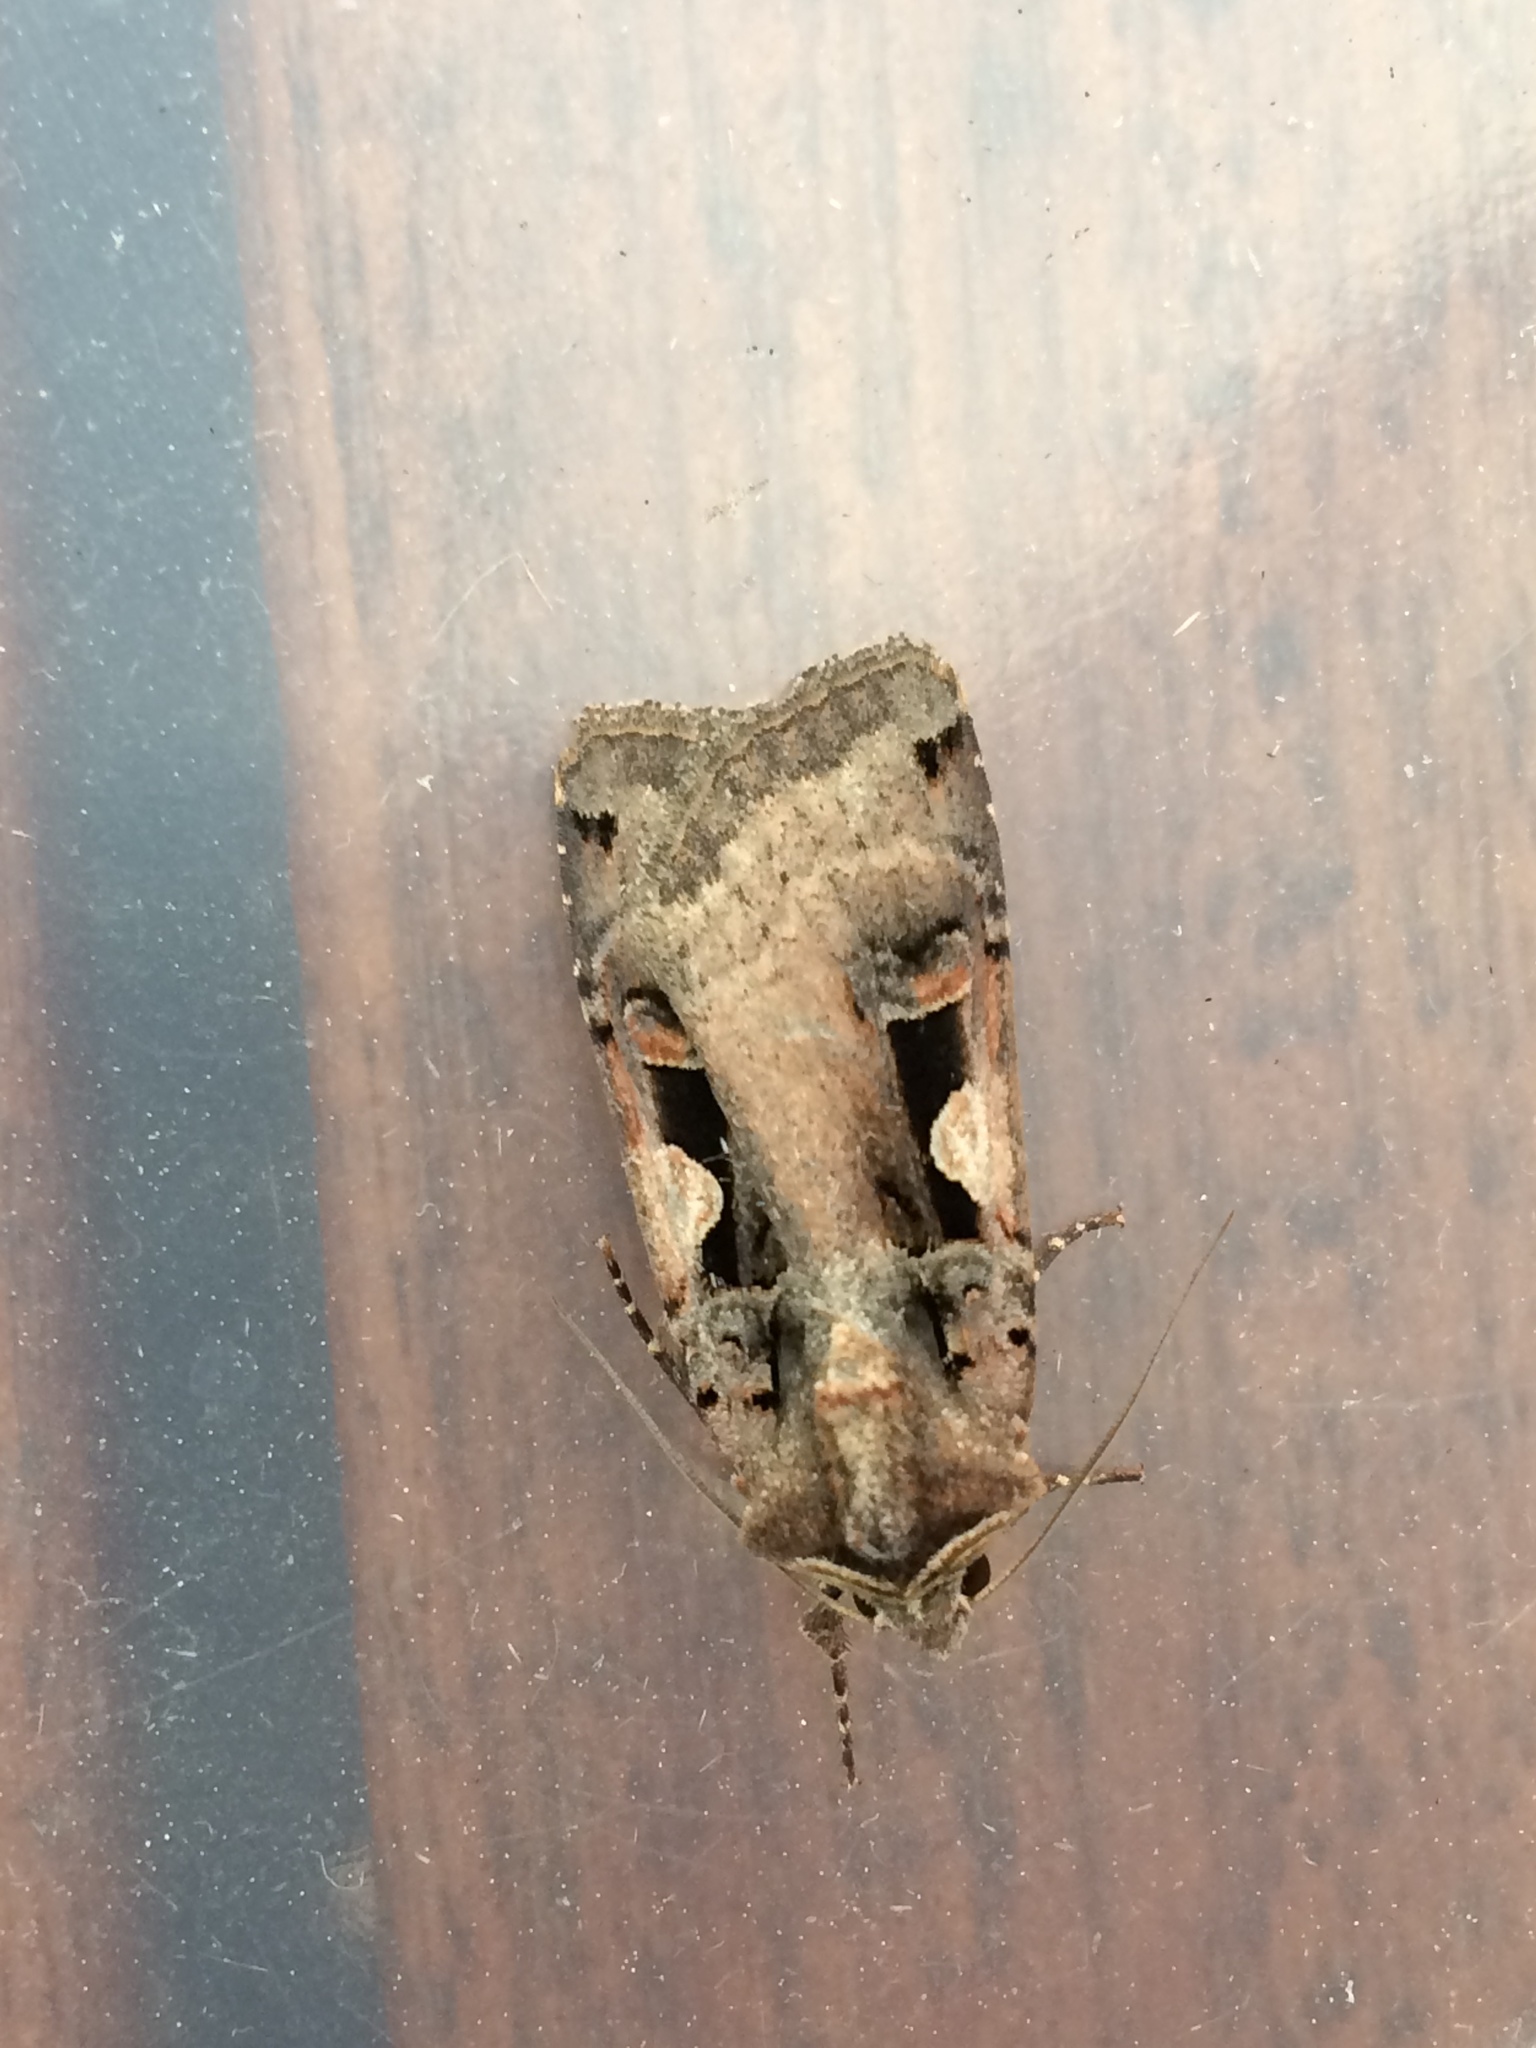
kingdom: Animalia
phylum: Arthropoda
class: Insecta
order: Lepidoptera
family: Noctuidae
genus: Xestia
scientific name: Xestia c-nigrum
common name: Setaceous hebrew character
